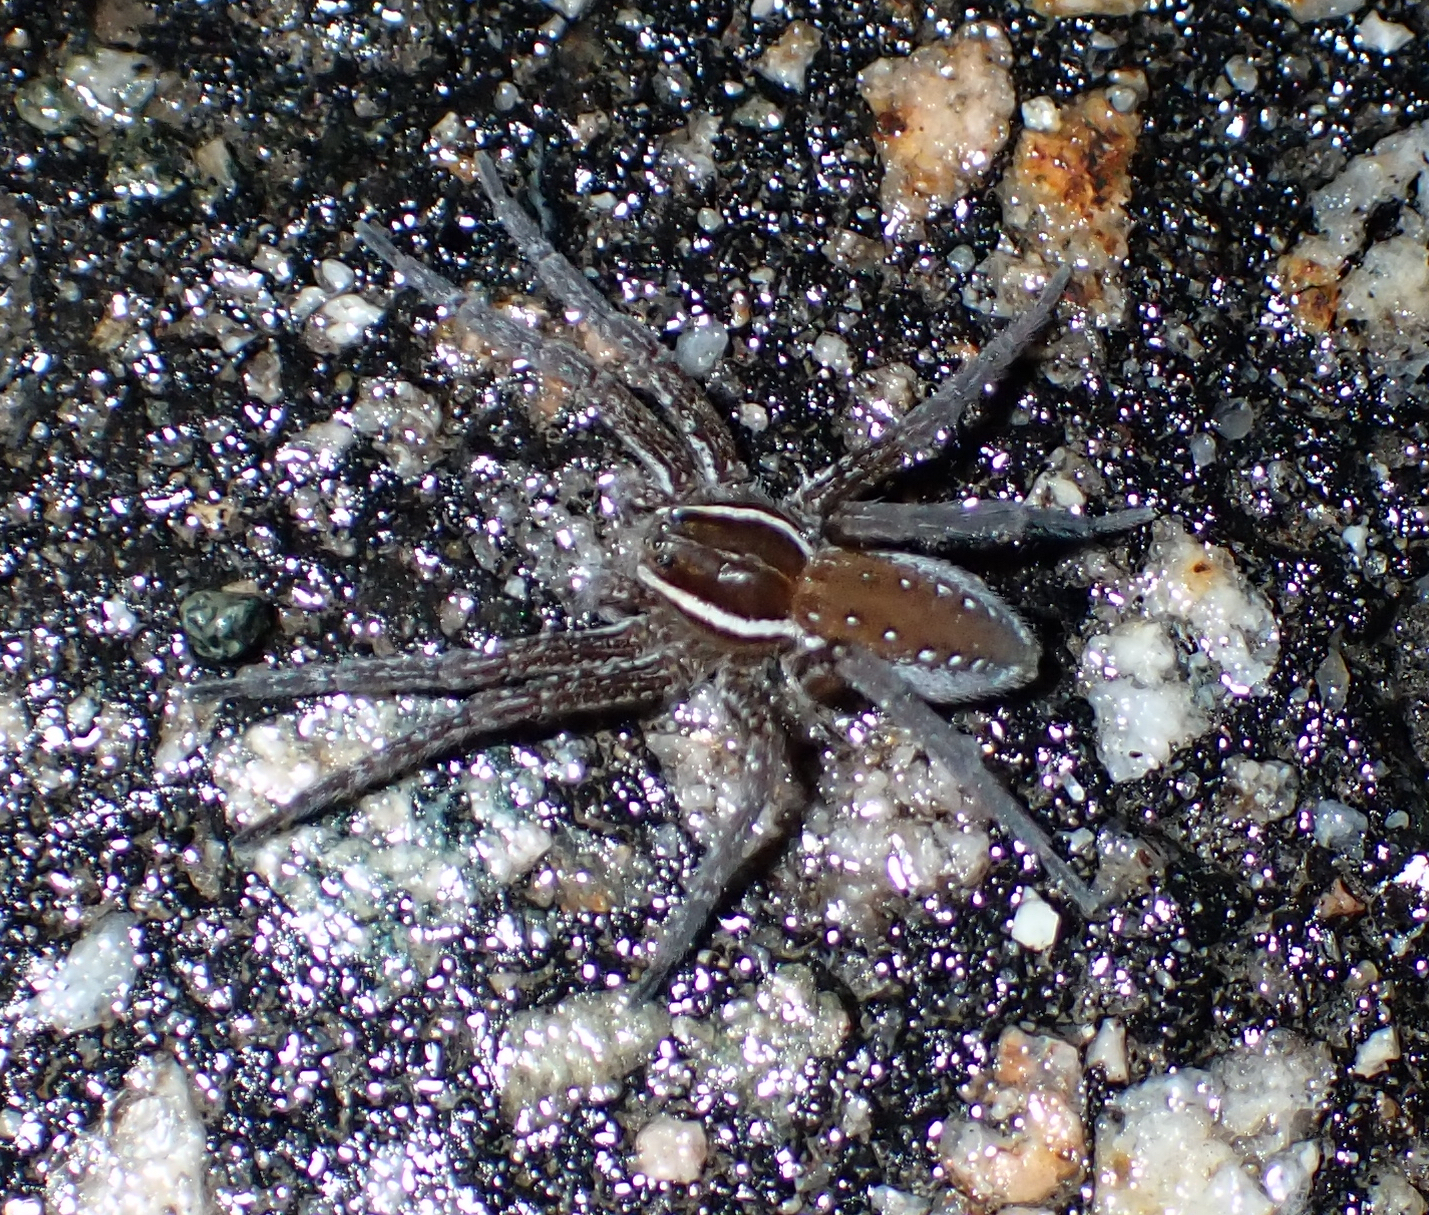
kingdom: Animalia
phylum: Arthropoda
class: Arachnida
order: Araneae
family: Pisauridae
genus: Dolomedes
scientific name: Dolomedes triton
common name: Six-spotted fishing spider
